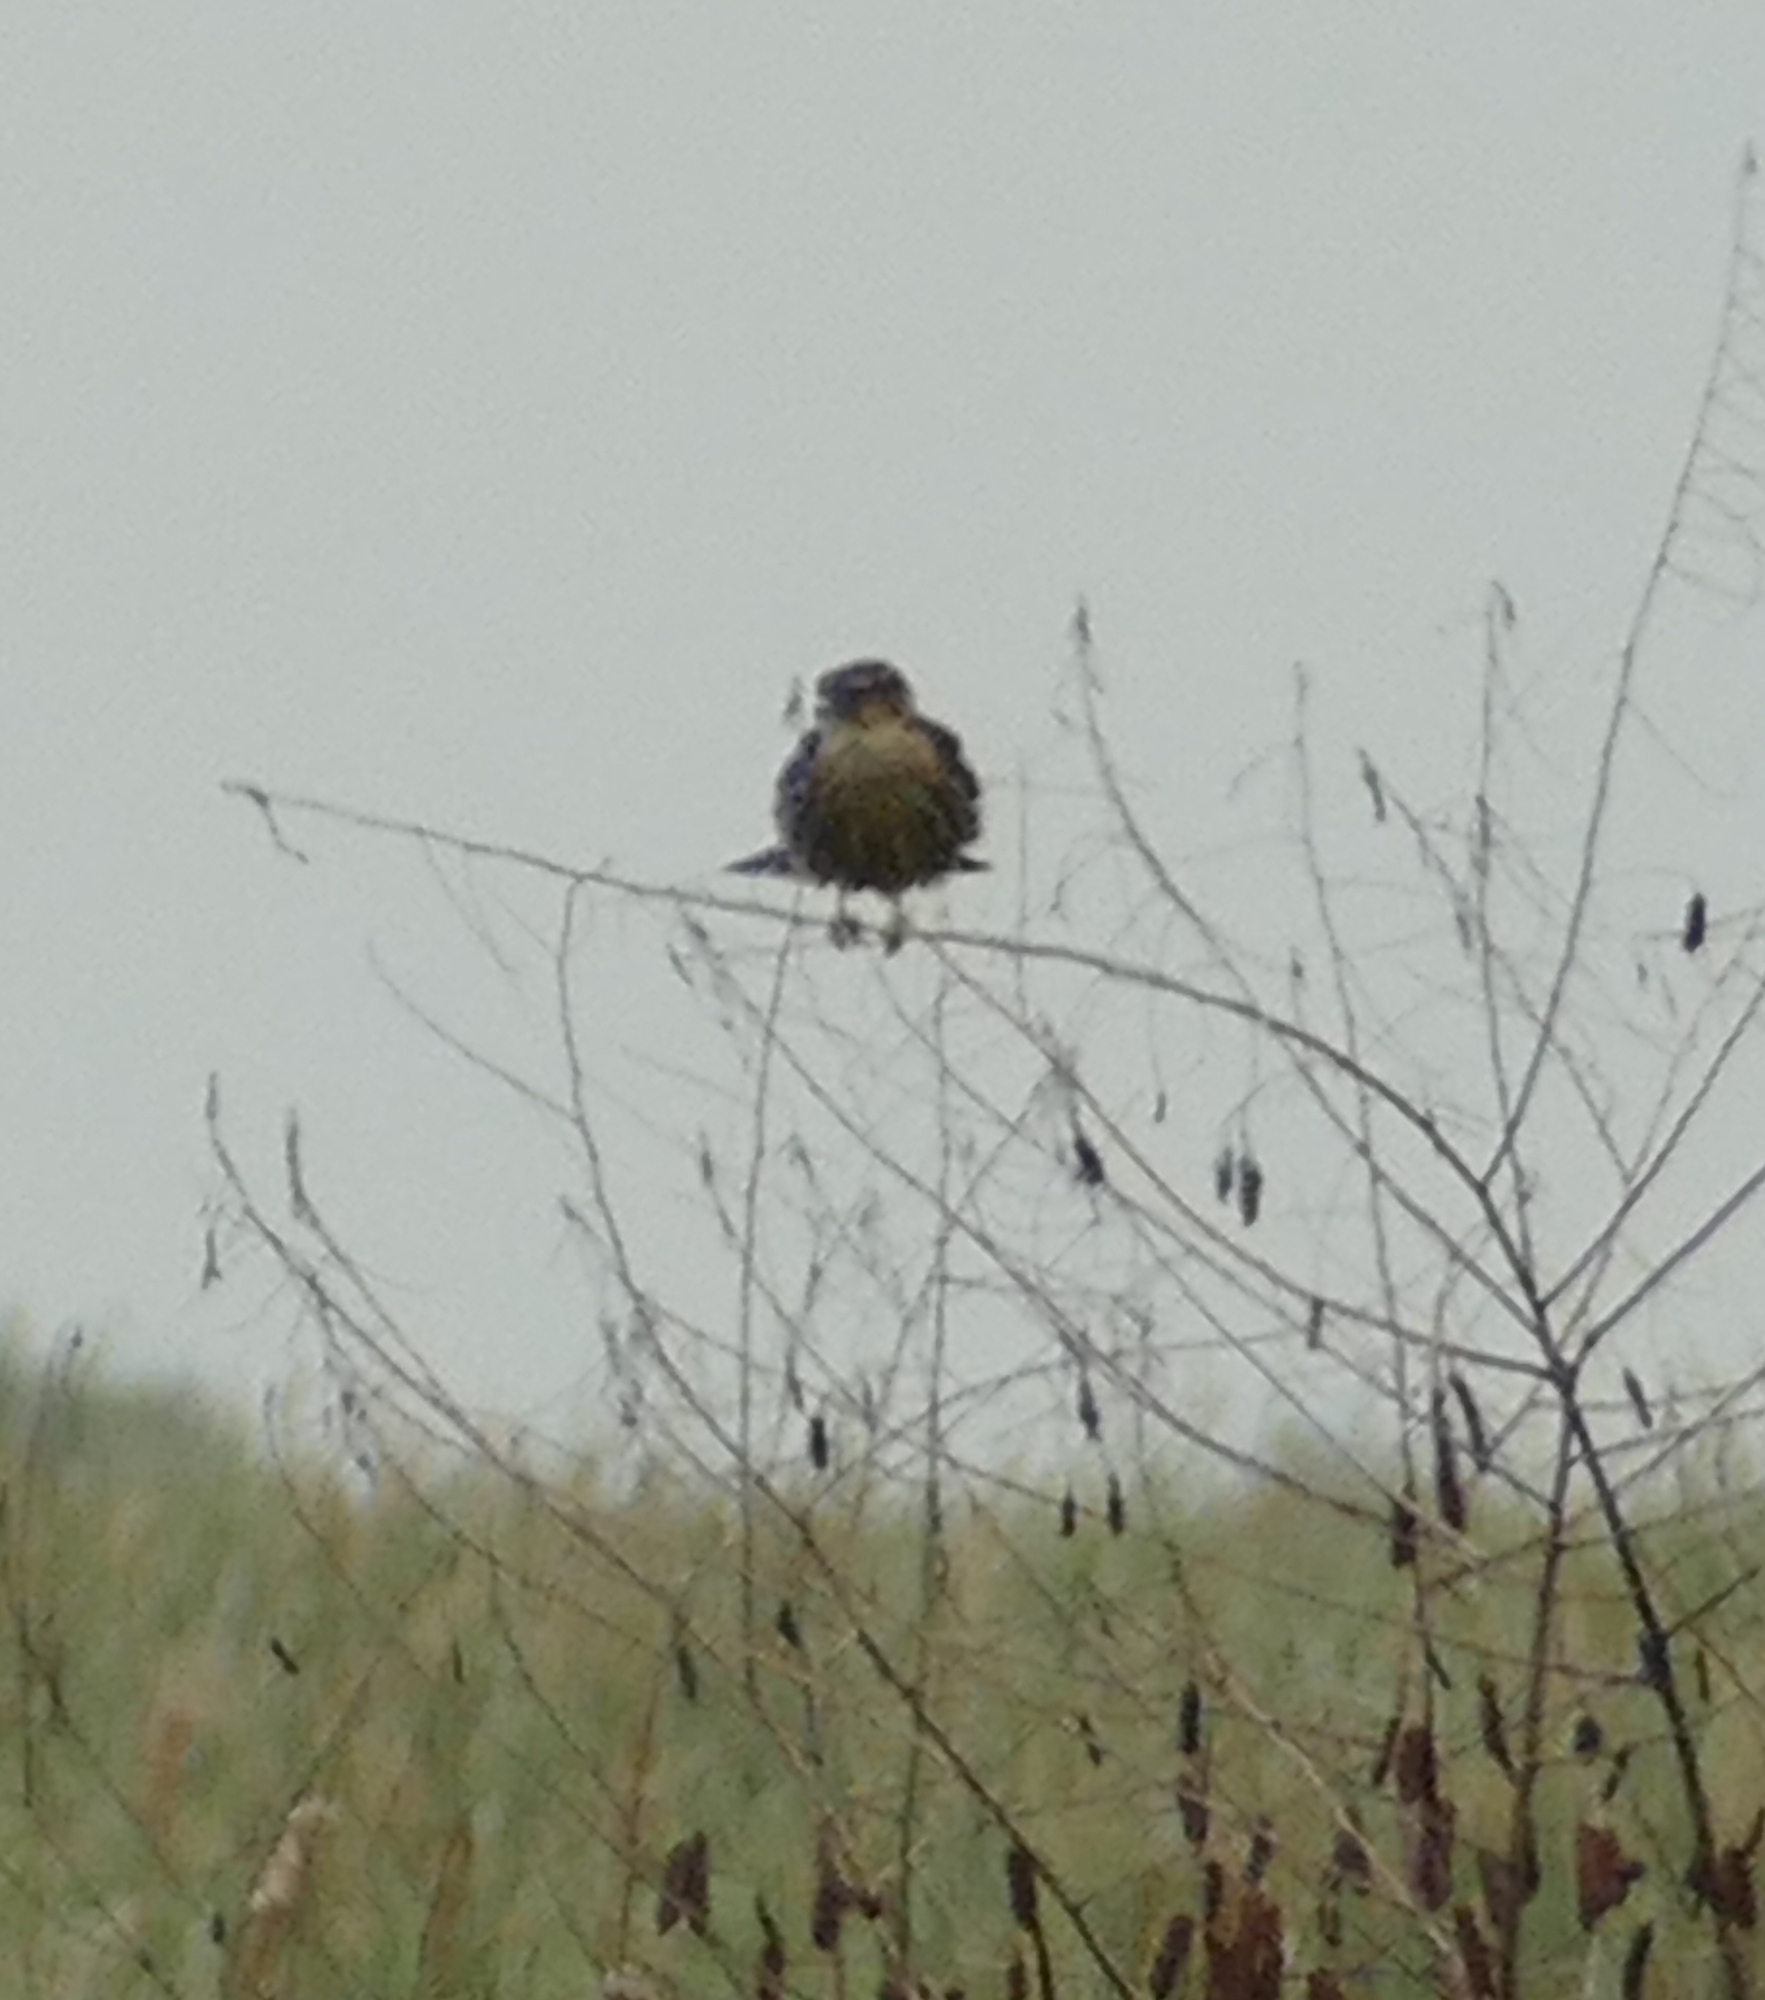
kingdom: Animalia
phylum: Chordata
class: Aves
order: Falconiformes
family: Falconidae
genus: Falco
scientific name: Falco columbarius
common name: Merlin
